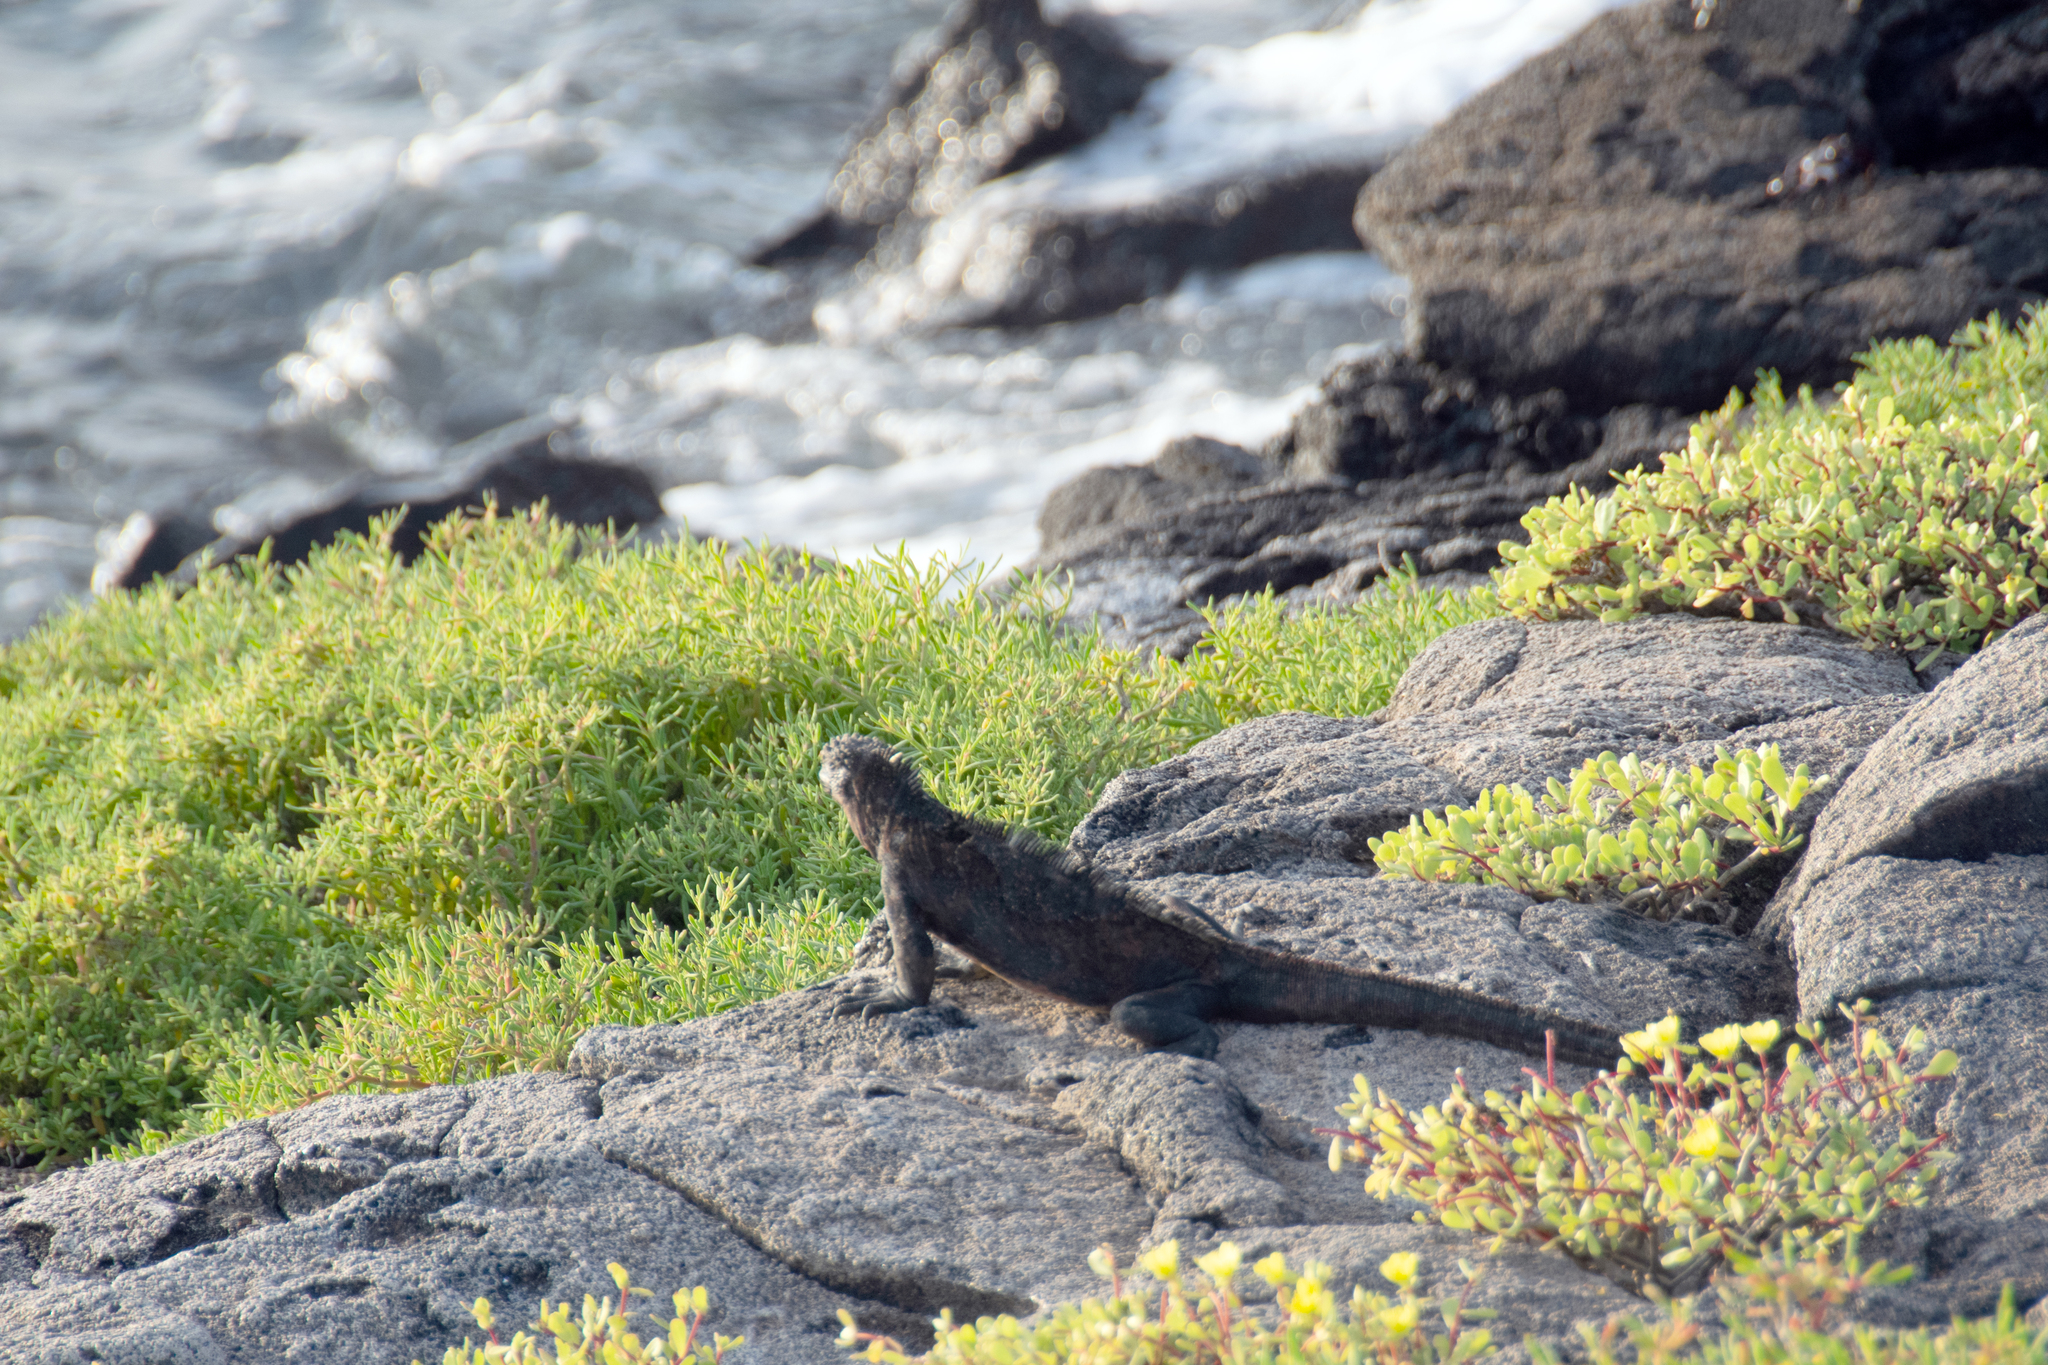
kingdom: Animalia
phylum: Chordata
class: Squamata
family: Iguanidae
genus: Amblyrhynchus
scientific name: Amblyrhynchus cristatus
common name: Marine iguana
